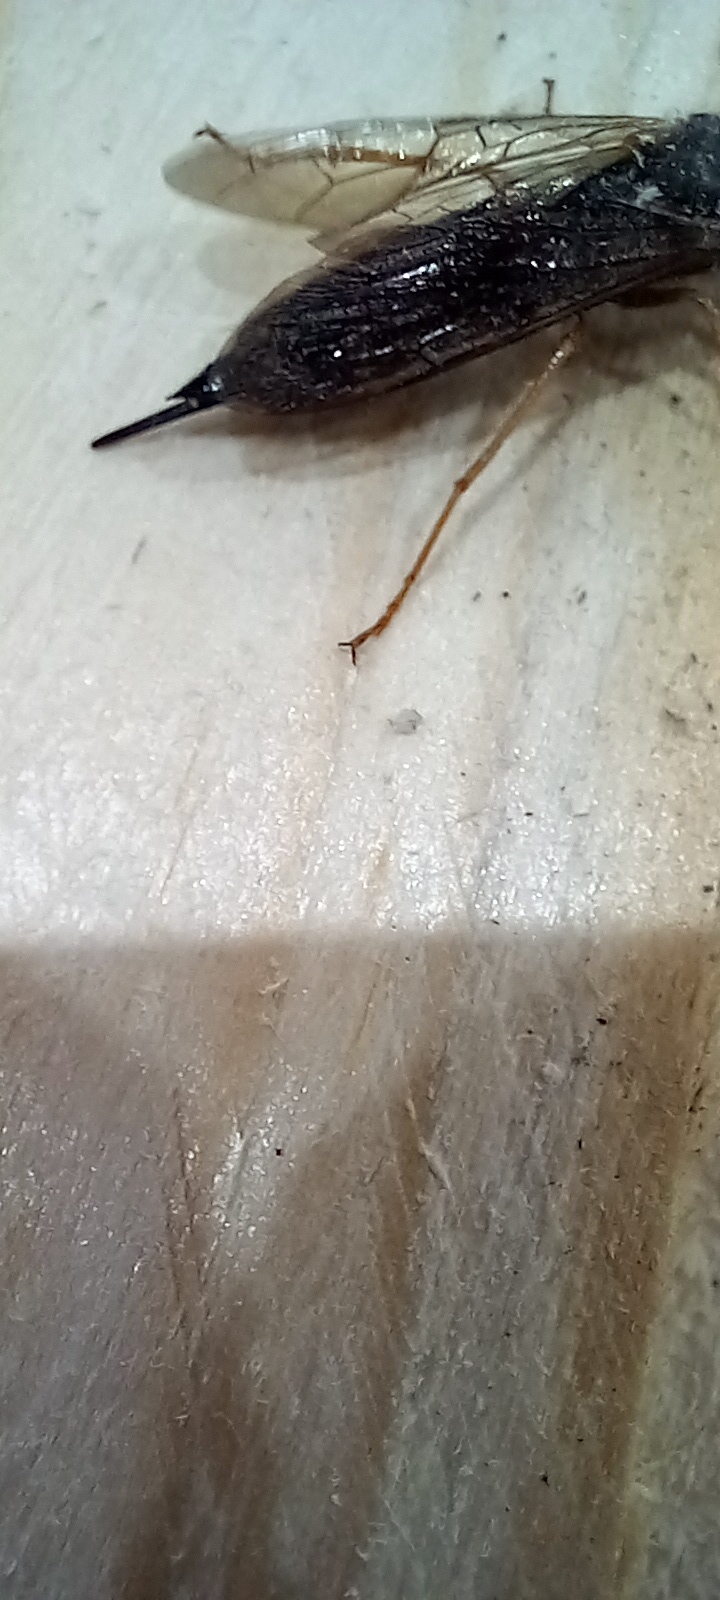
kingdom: Animalia
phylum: Arthropoda
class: Insecta
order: Hymenoptera
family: Siricidae
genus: Sirex
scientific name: Sirex juvencus
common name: Blue horntail
